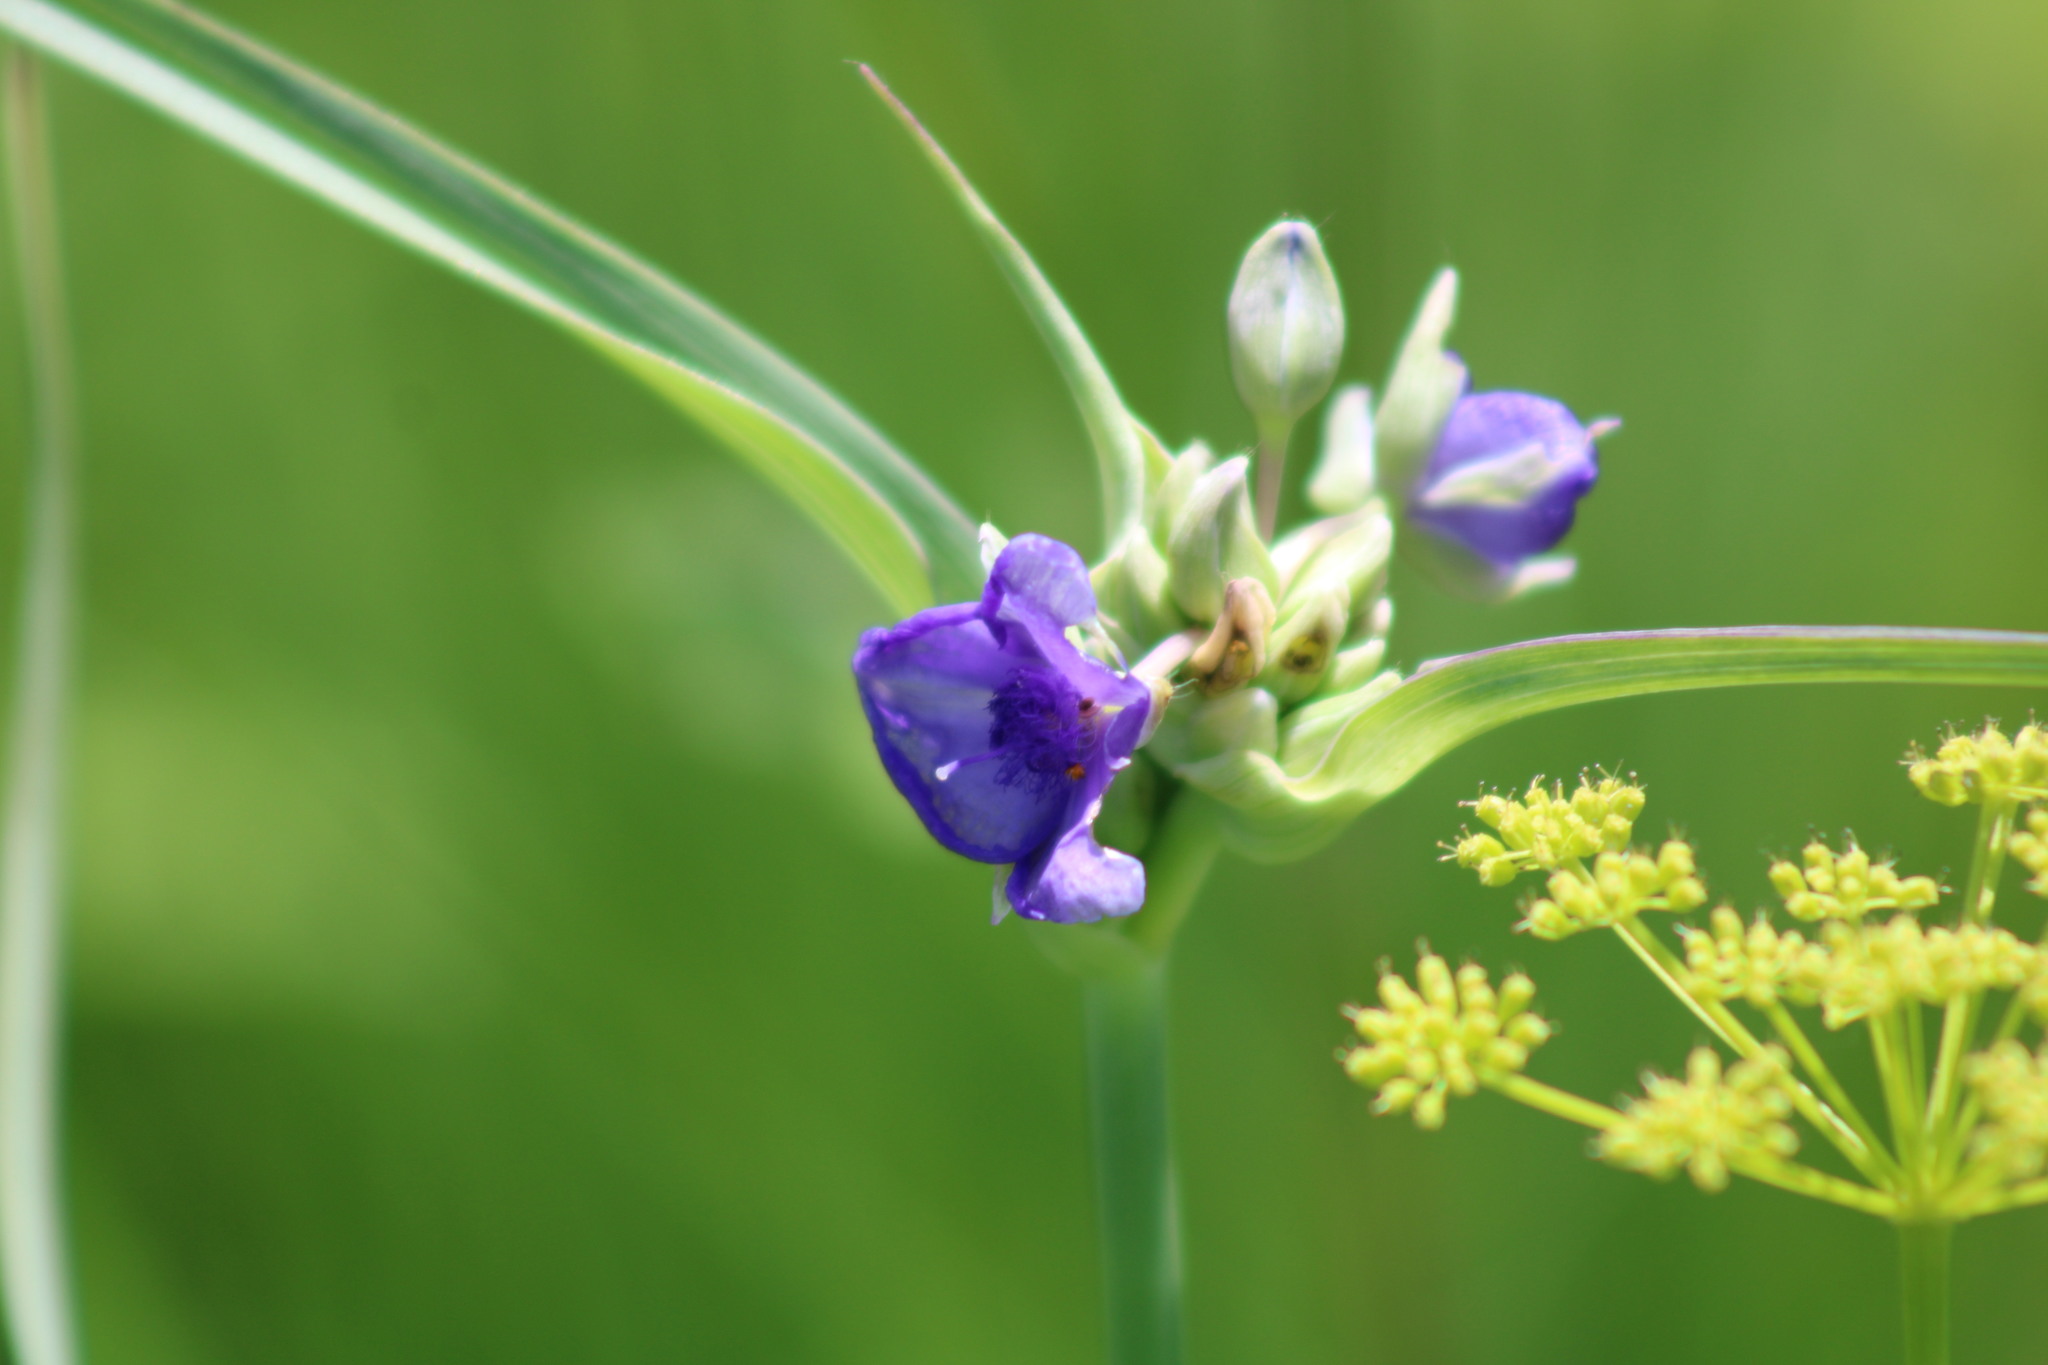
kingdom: Plantae
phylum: Tracheophyta
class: Liliopsida
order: Commelinales
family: Commelinaceae
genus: Tradescantia
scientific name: Tradescantia ohiensis
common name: Ohio spiderwort
